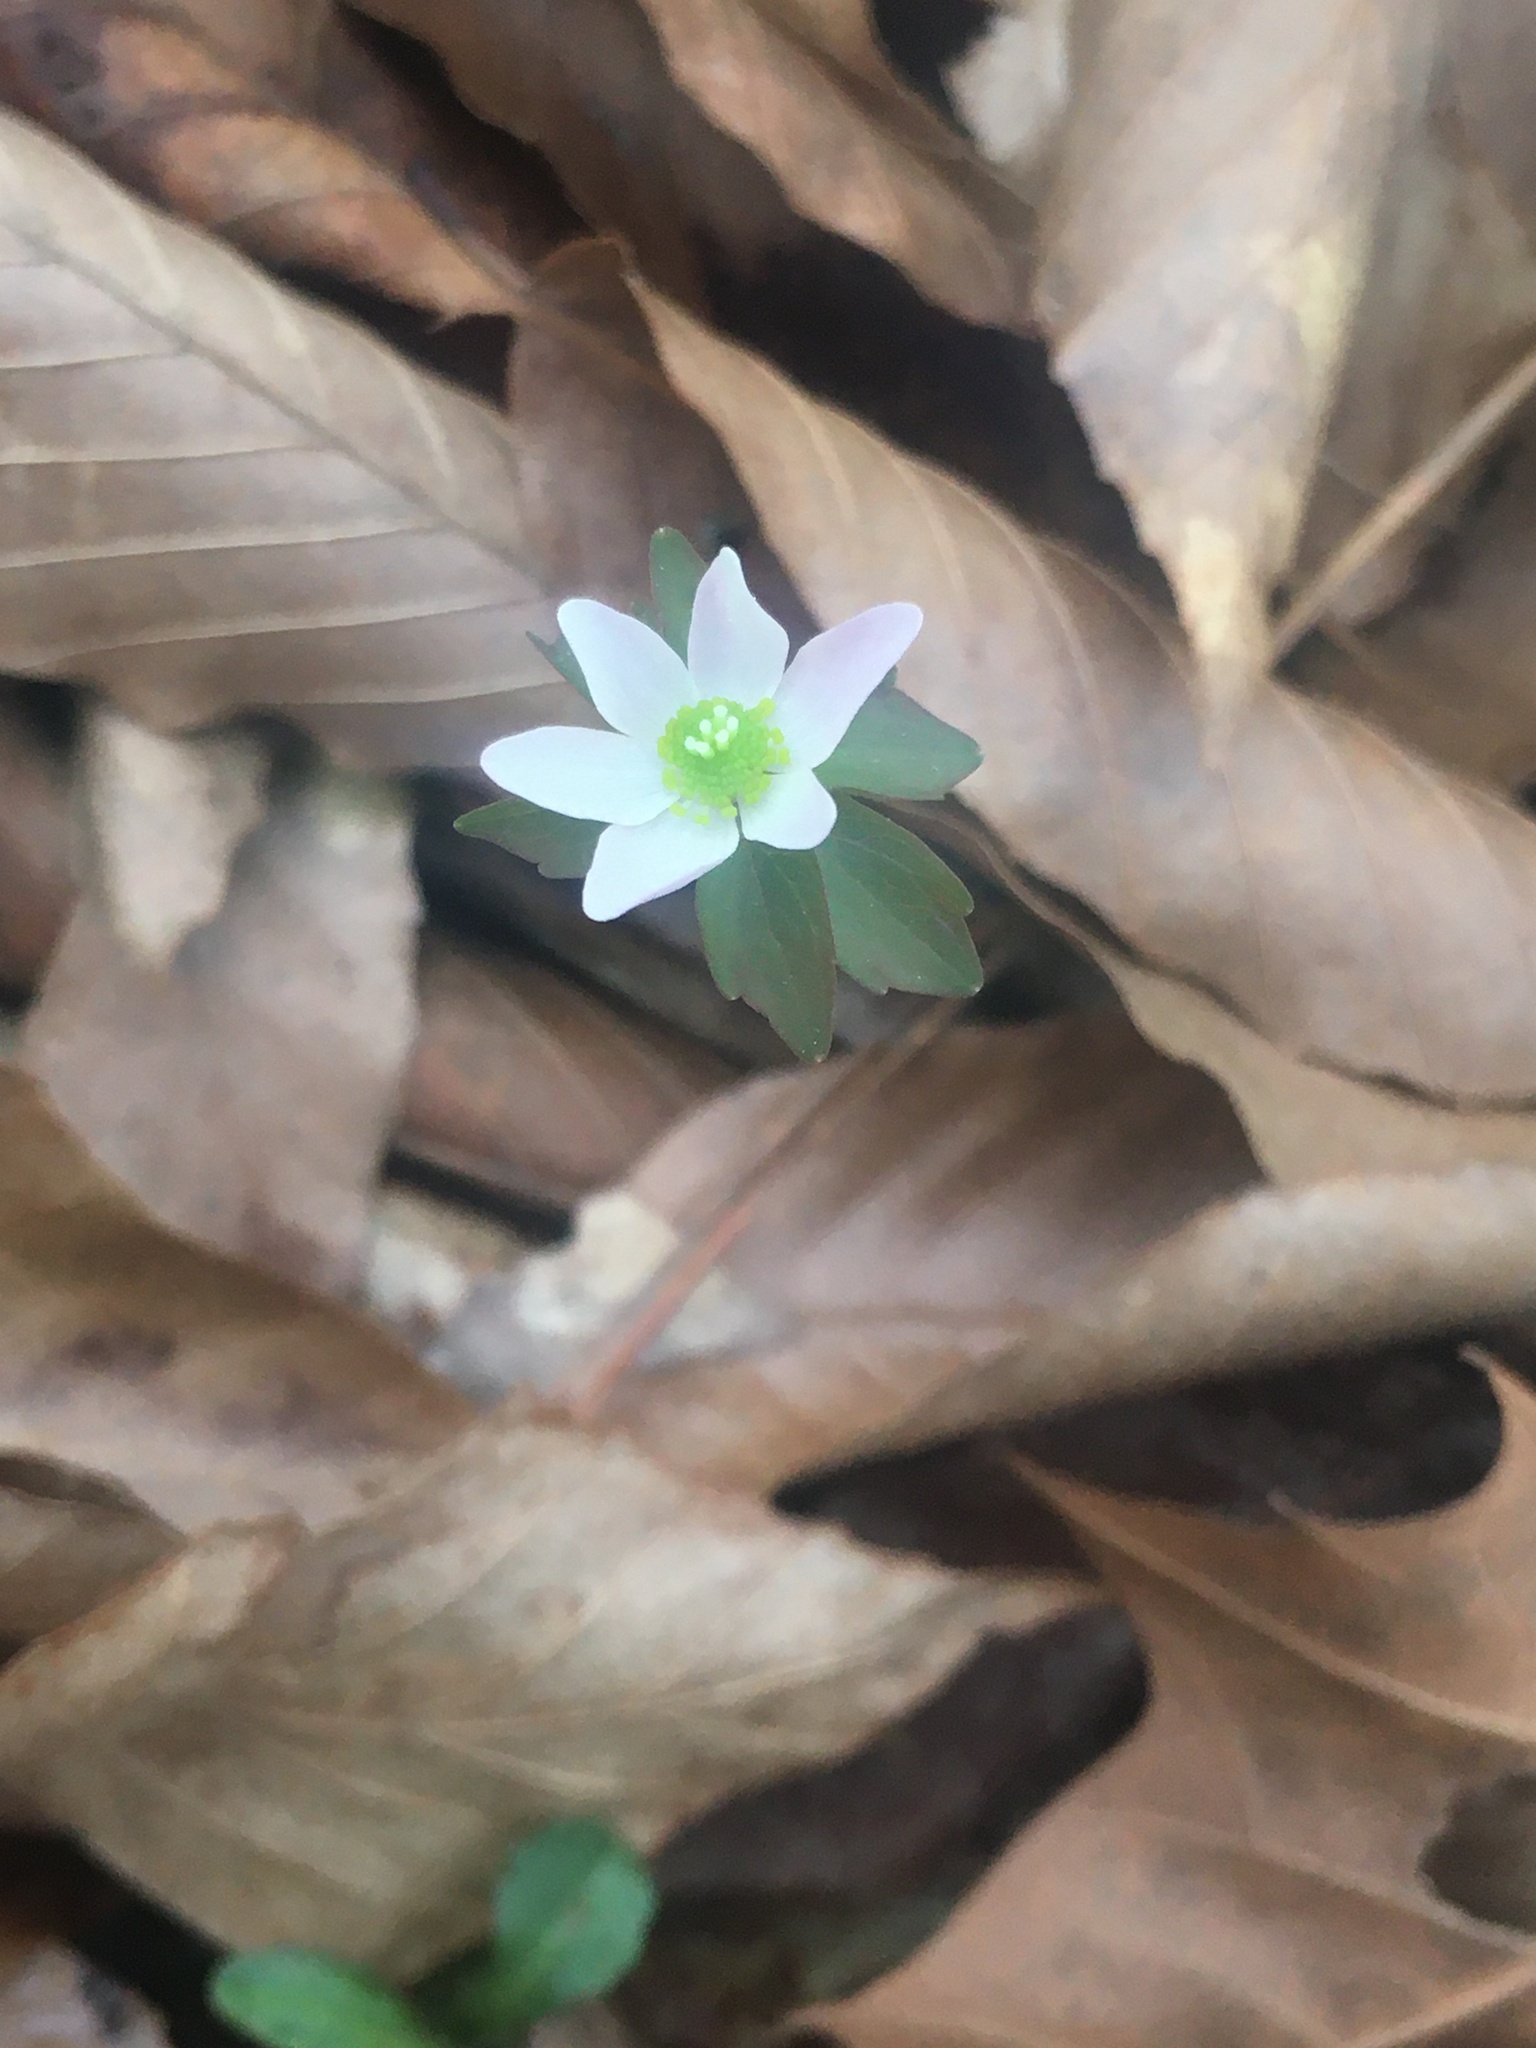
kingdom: Plantae
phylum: Tracheophyta
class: Magnoliopsida
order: Ranunculales
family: Ranunculaceae
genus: Thalictrum
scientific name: Thalictrum thalictroides
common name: Rue-anemone
